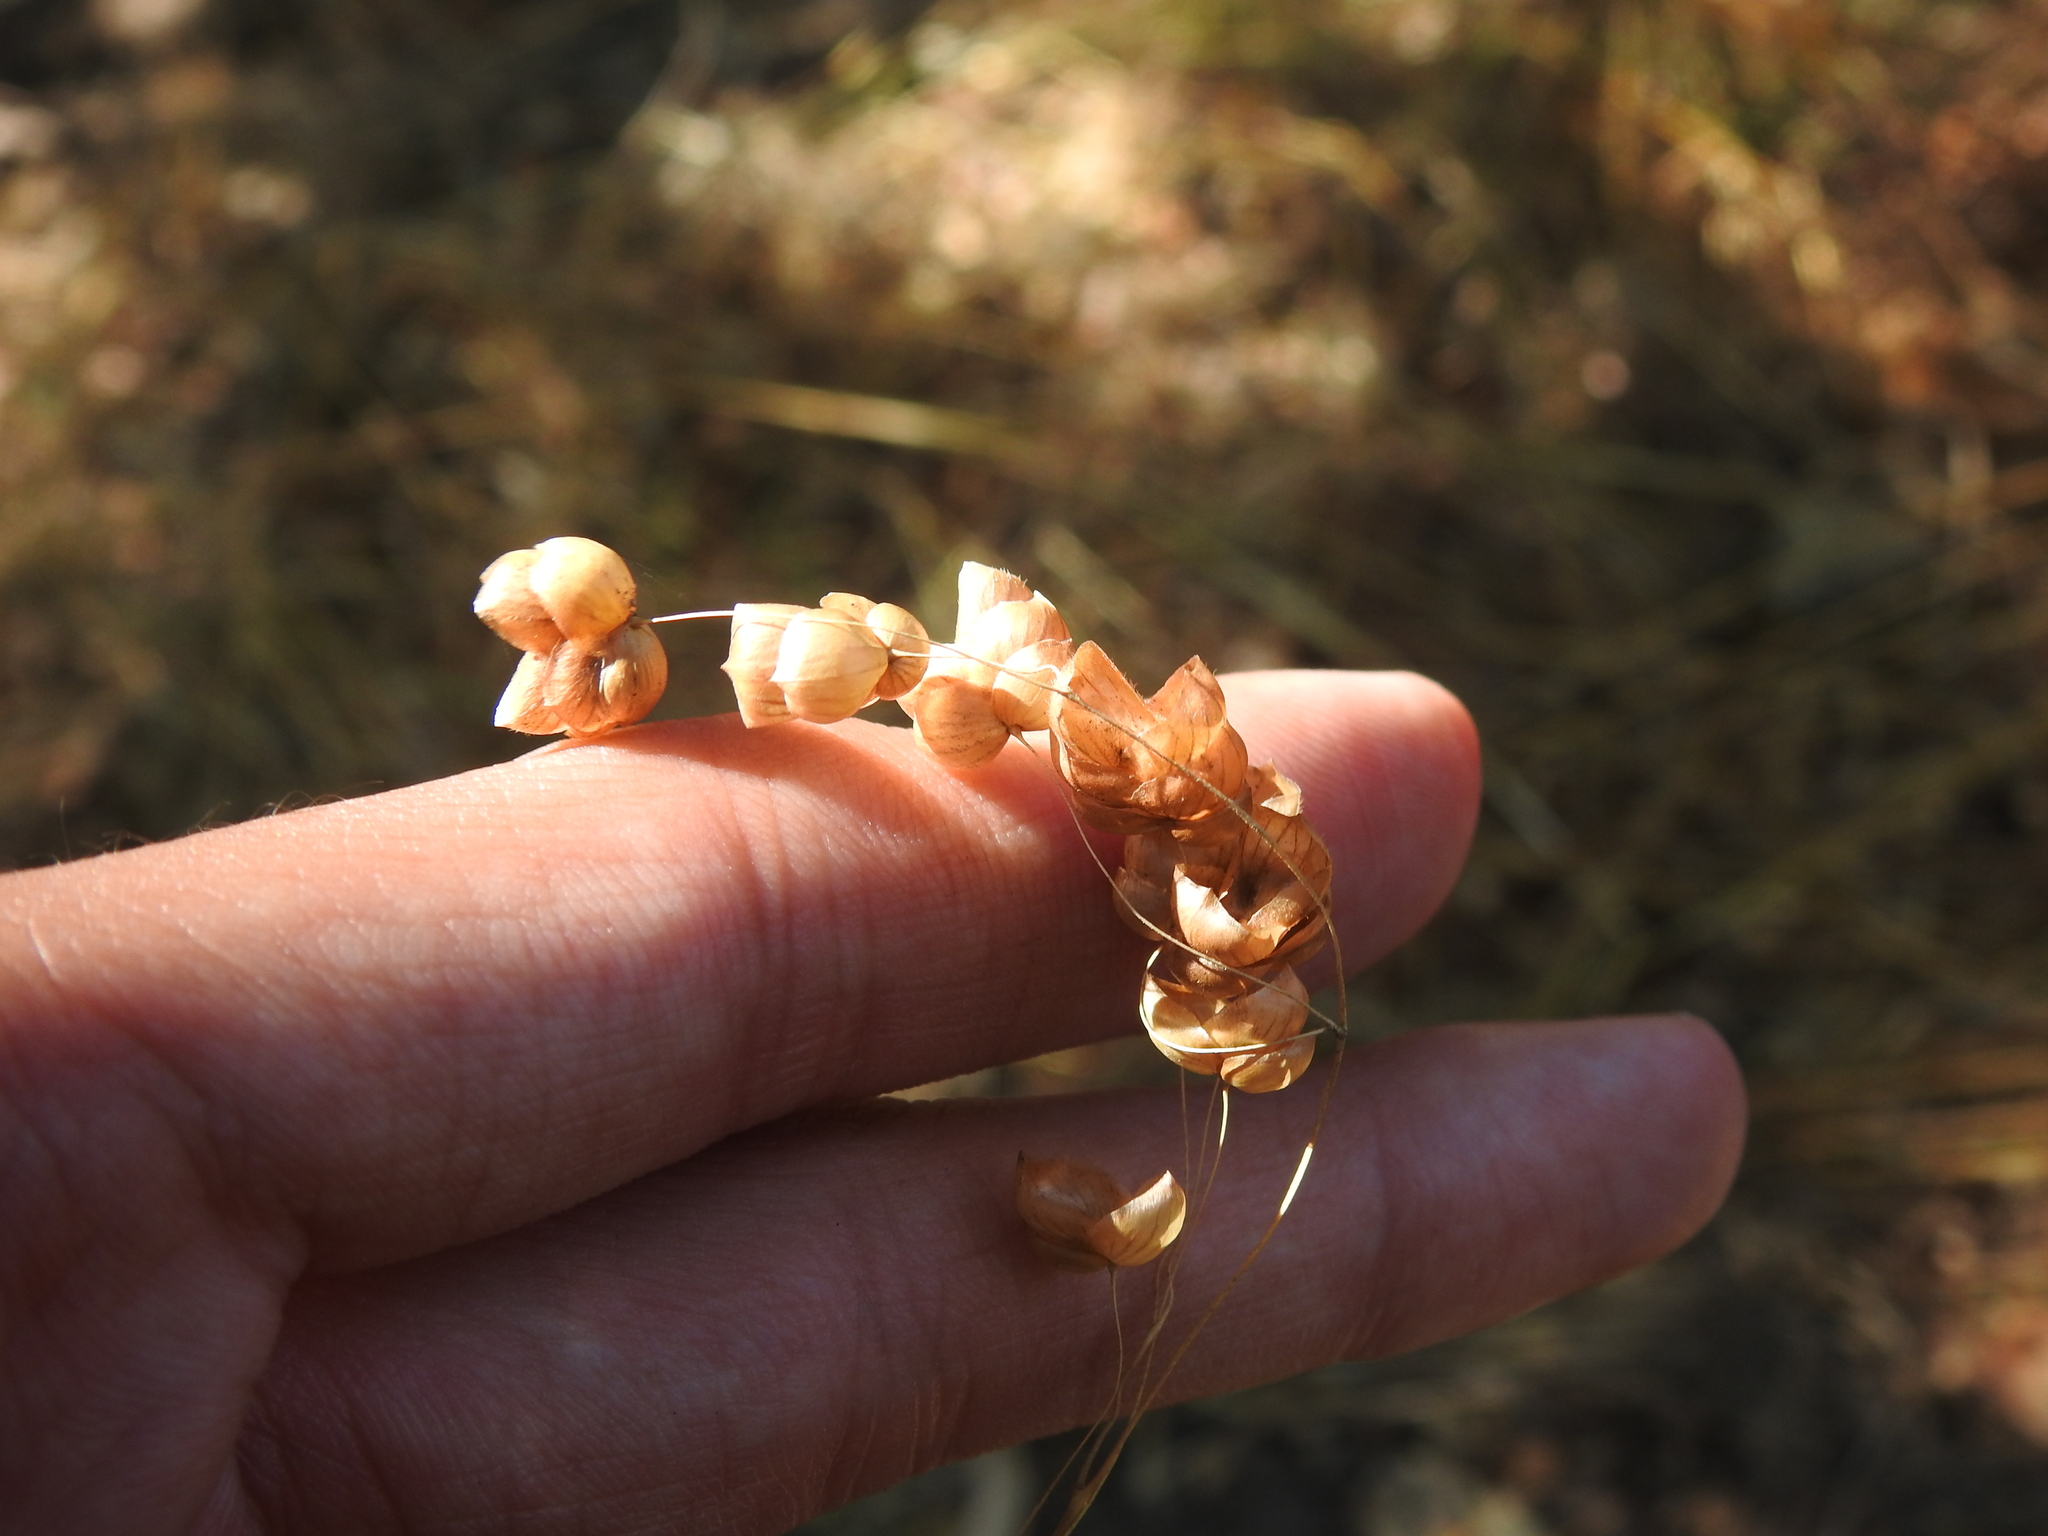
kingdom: Plantae
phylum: Tracheophyta
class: Liliopsida
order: Poales
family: Poaceae
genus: Briza
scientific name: Briza maxima
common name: Big quakinggrass
